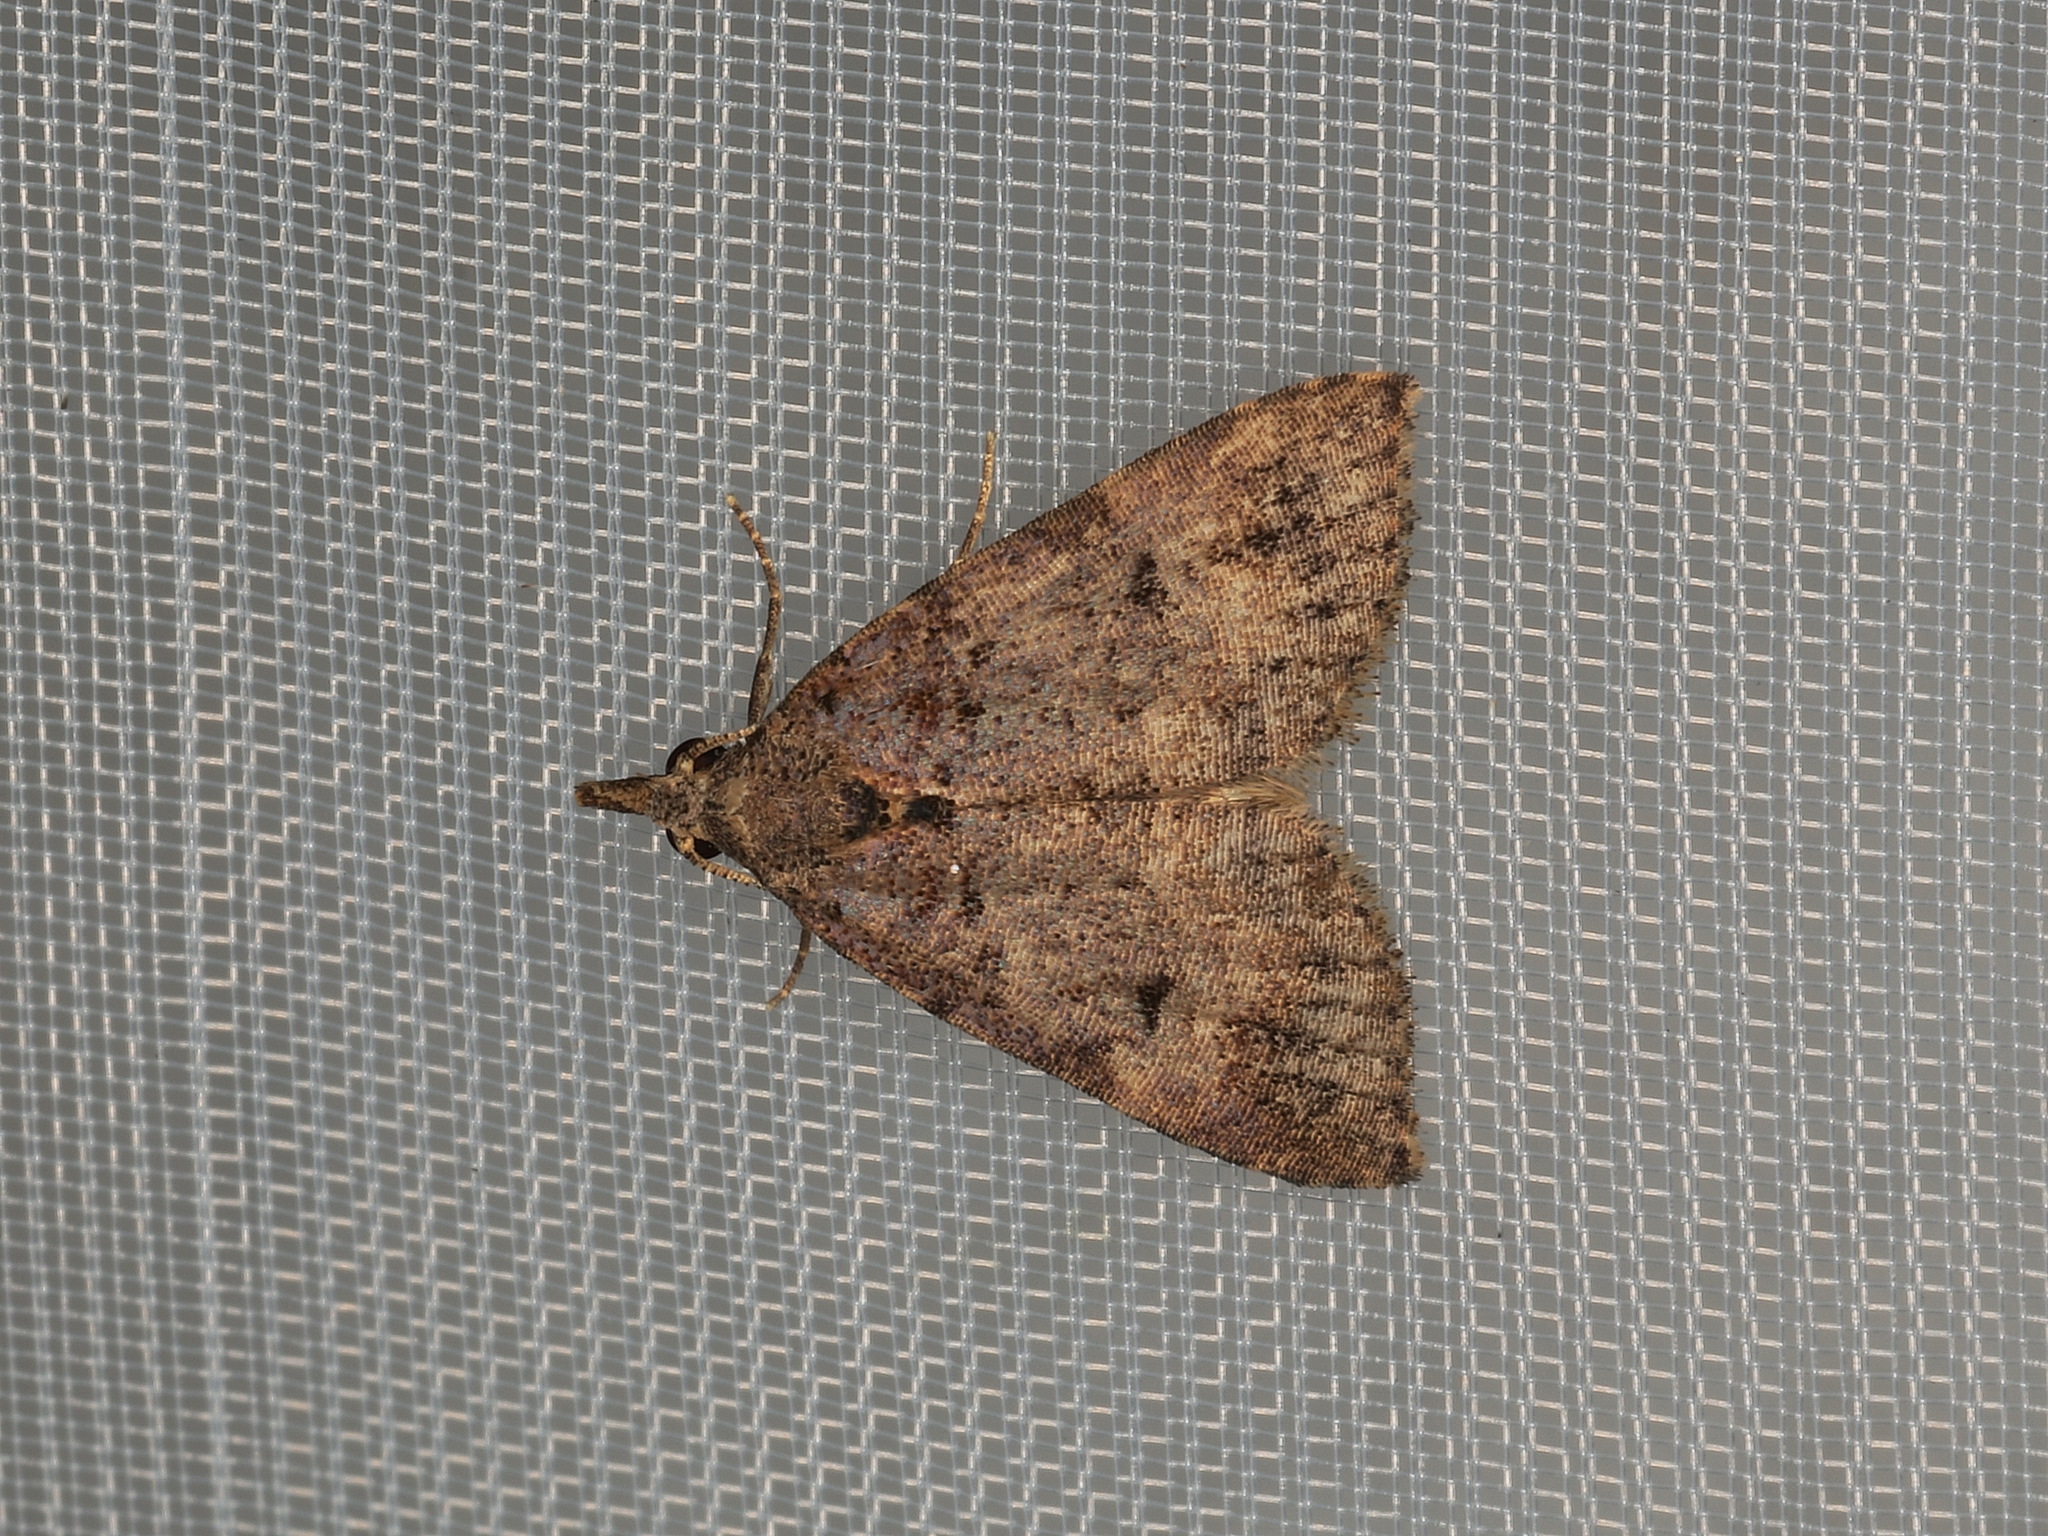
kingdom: Animalia
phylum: Arthropoda
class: Insecta
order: Lepidoptera
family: Erebidae
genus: Alapadna
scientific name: Alapadna pauropis
